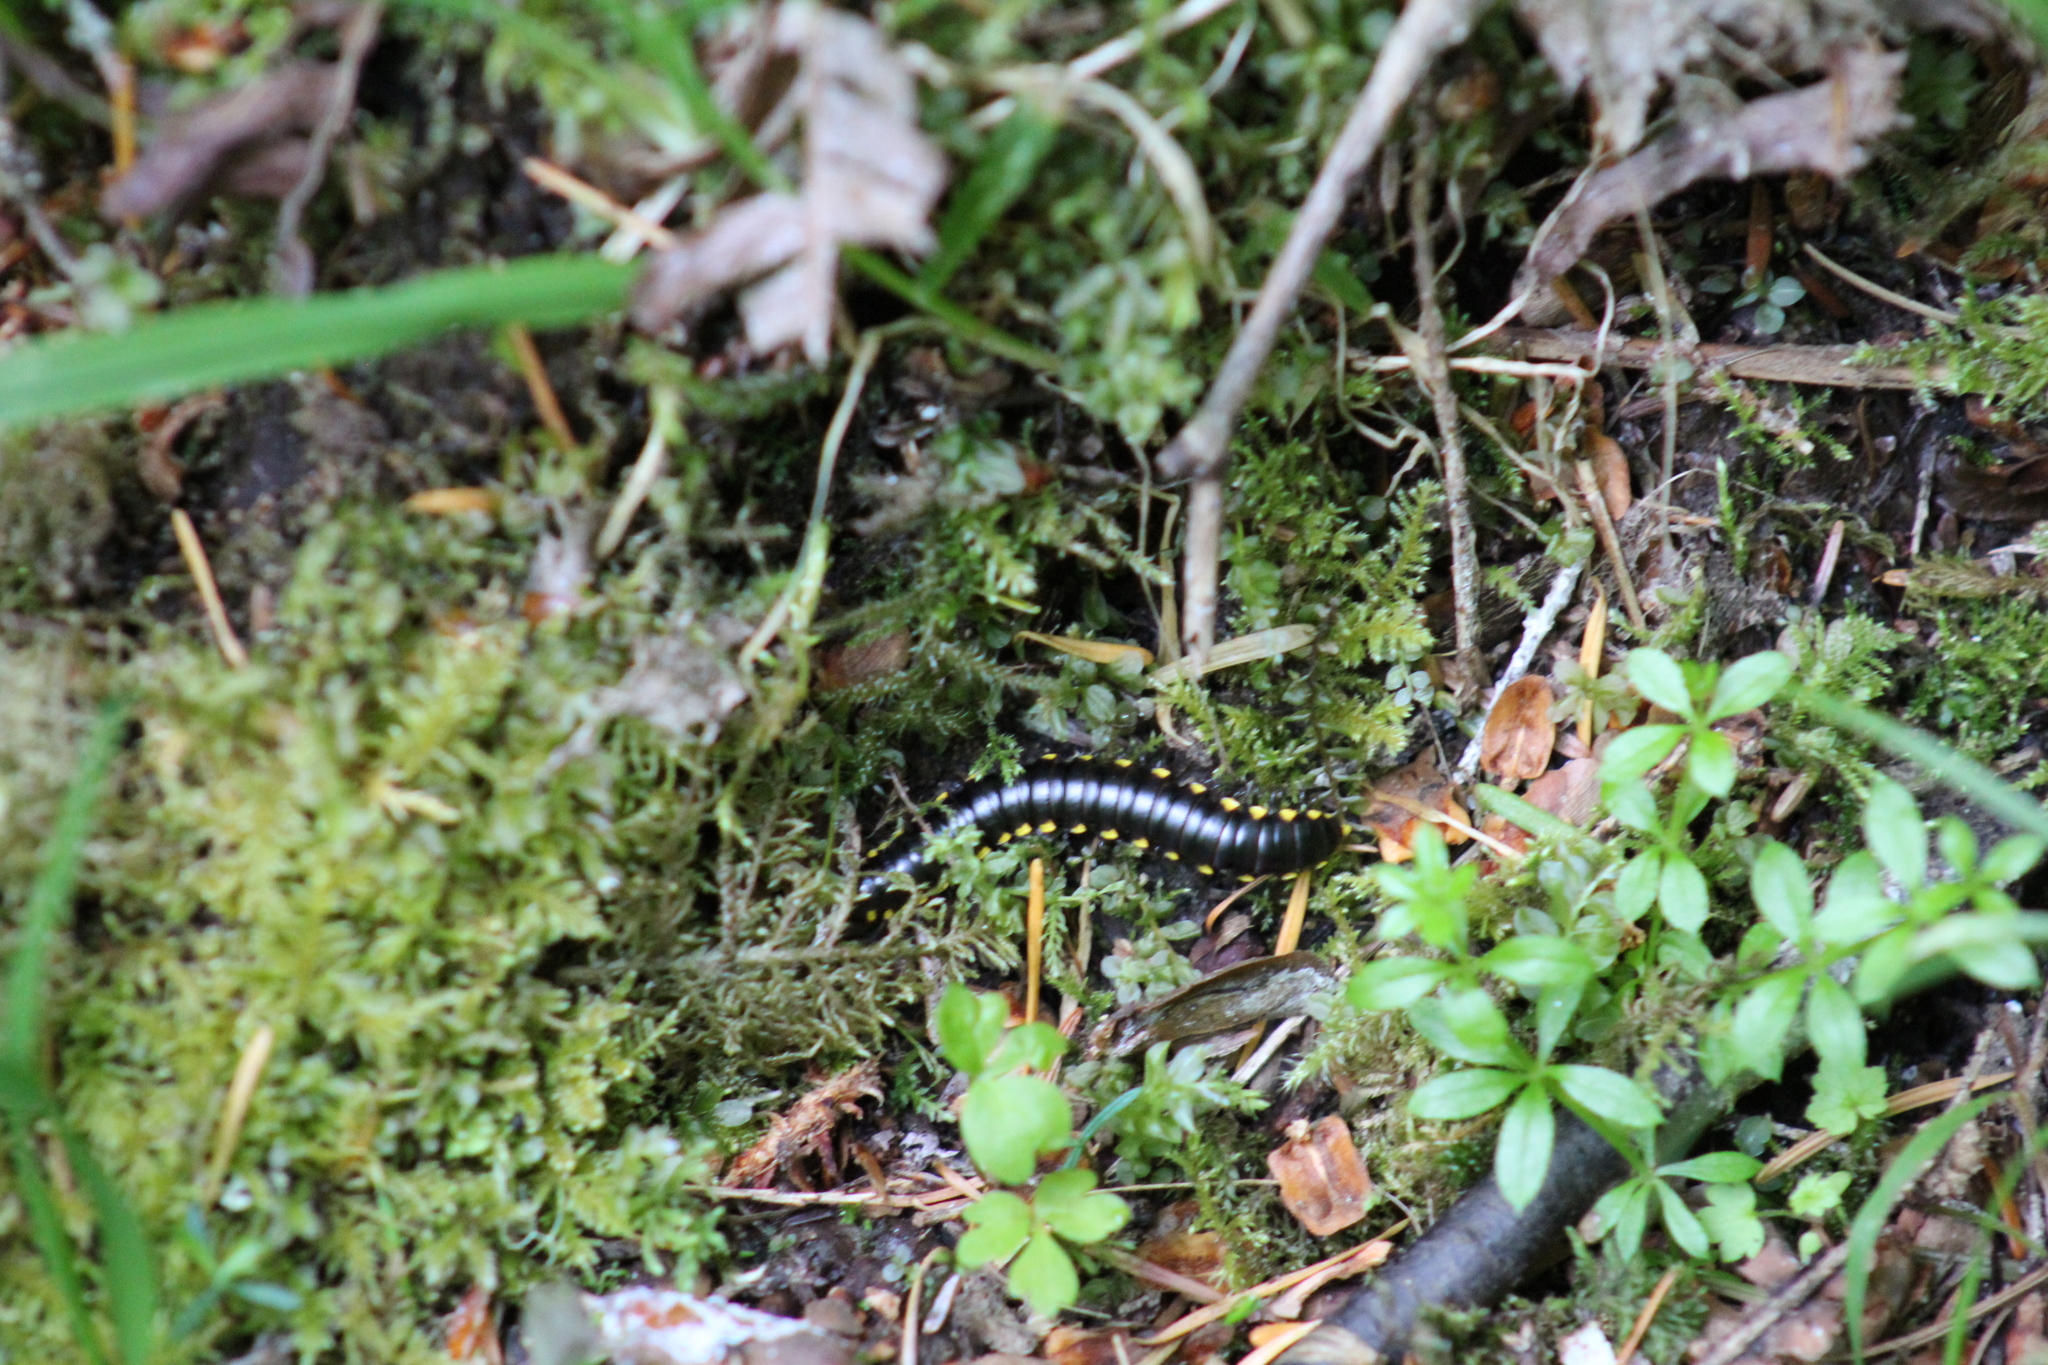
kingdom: Animalia
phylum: Arthropoda
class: Diplopoda
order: Polydesmida
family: Xystodesmidae
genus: Harpaphe
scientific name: Harpaphe haydeniana
